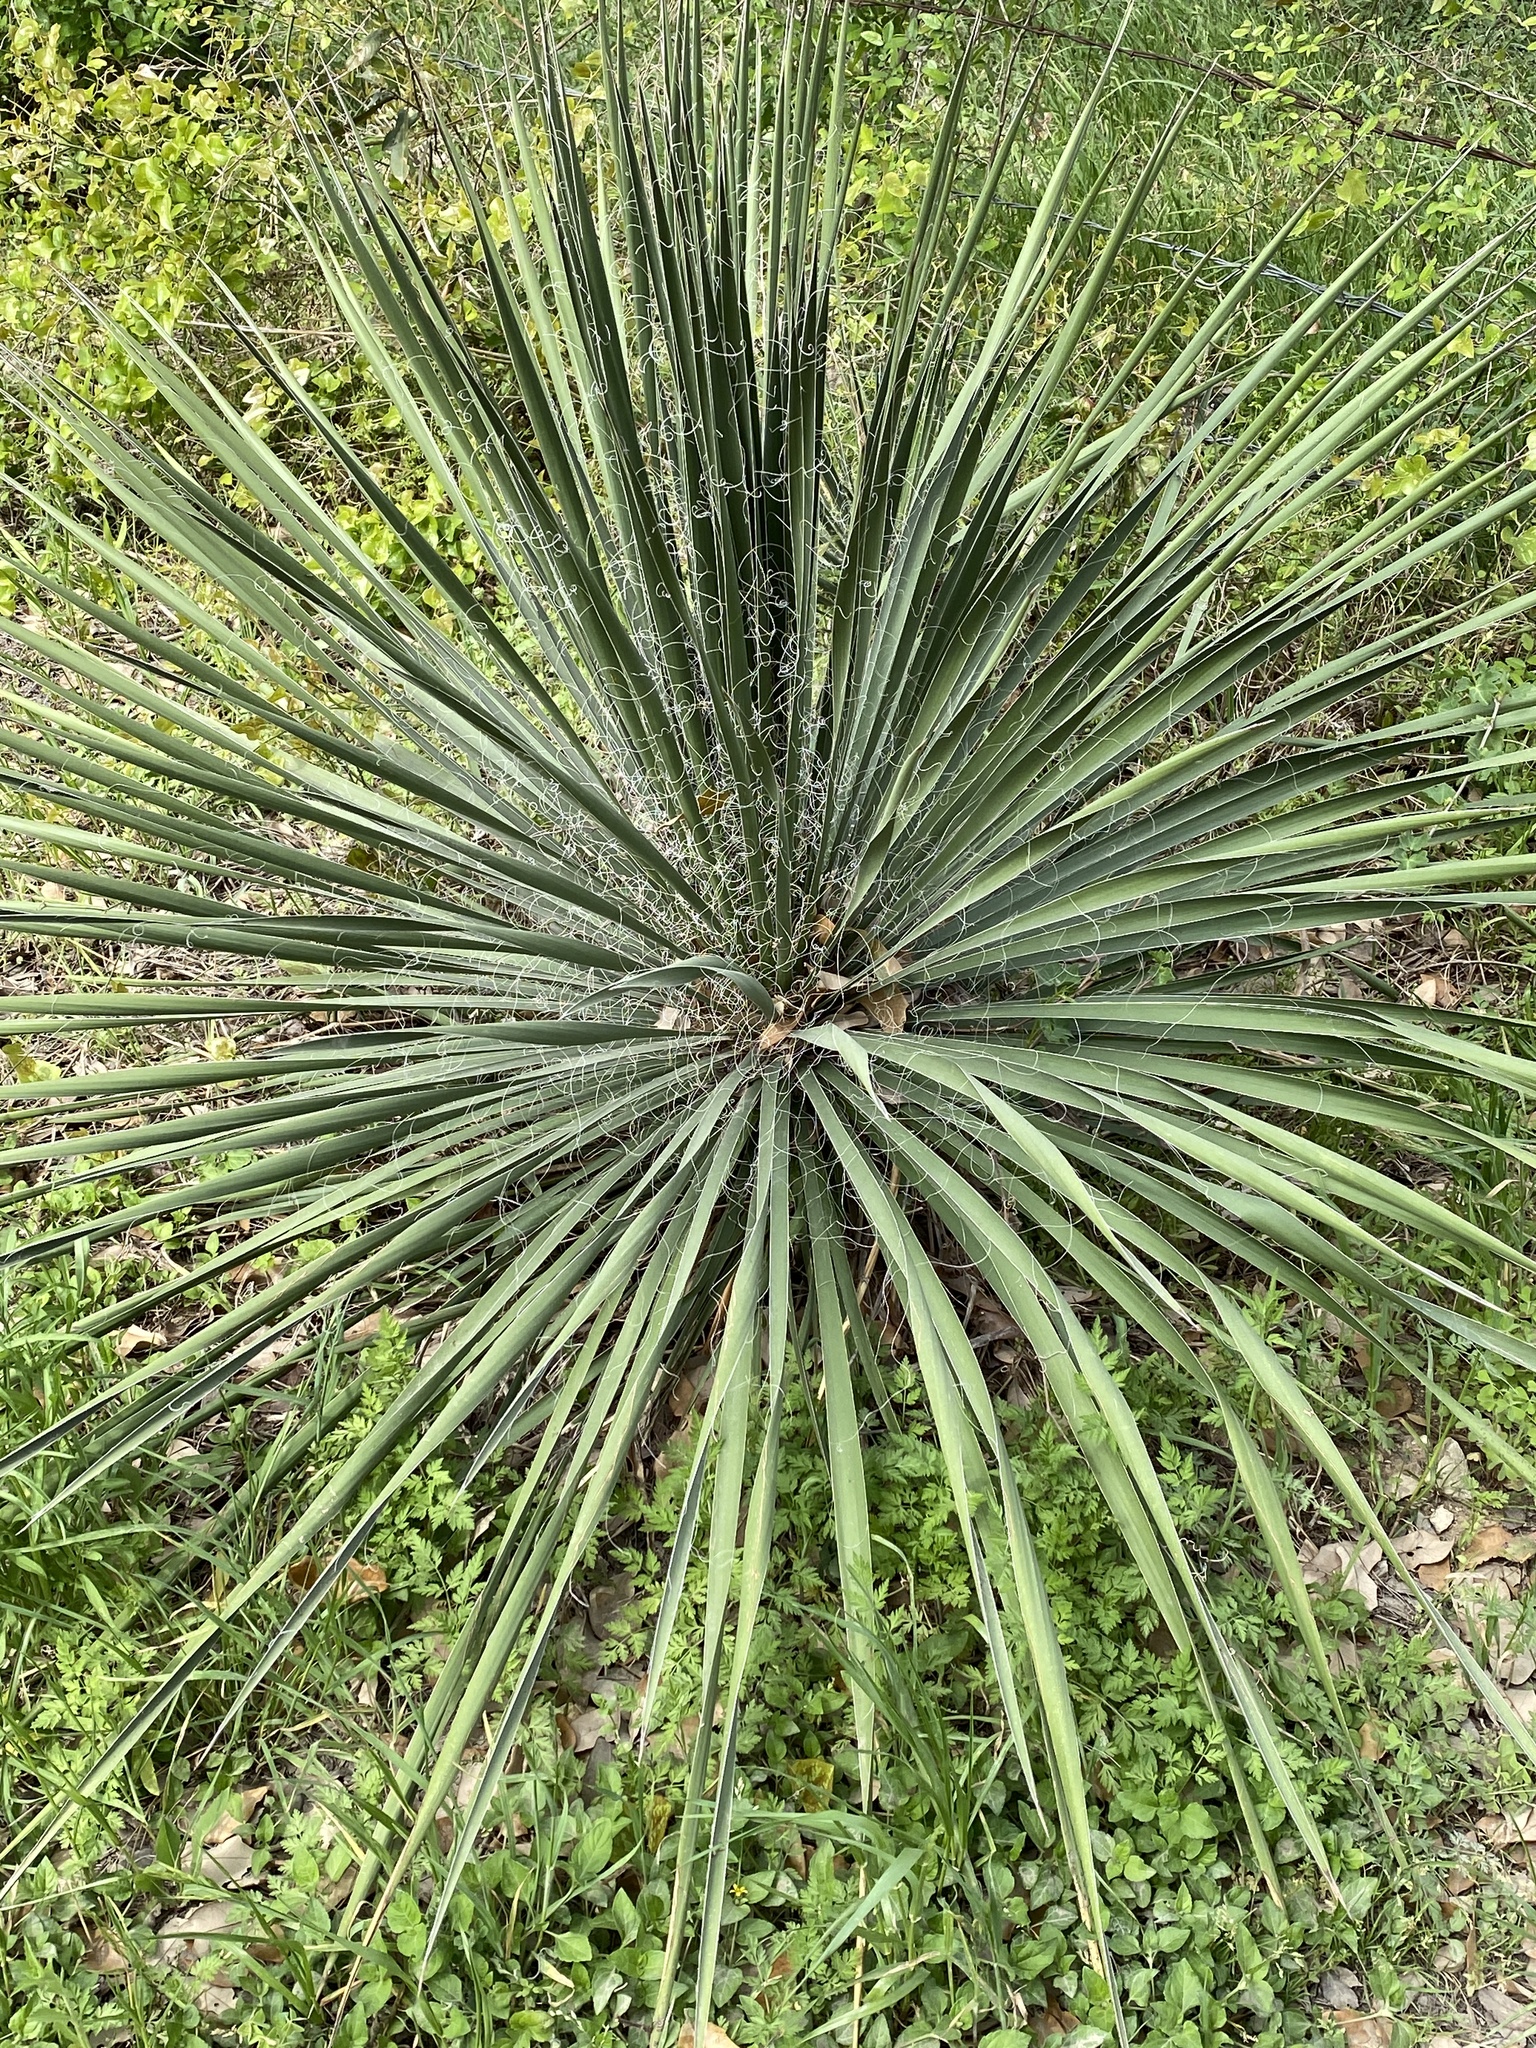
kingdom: Plantae
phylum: Tracheophyta
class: Liliopsida
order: Asparagales
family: Asparagaceae
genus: Yucca
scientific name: Yucca constricta
